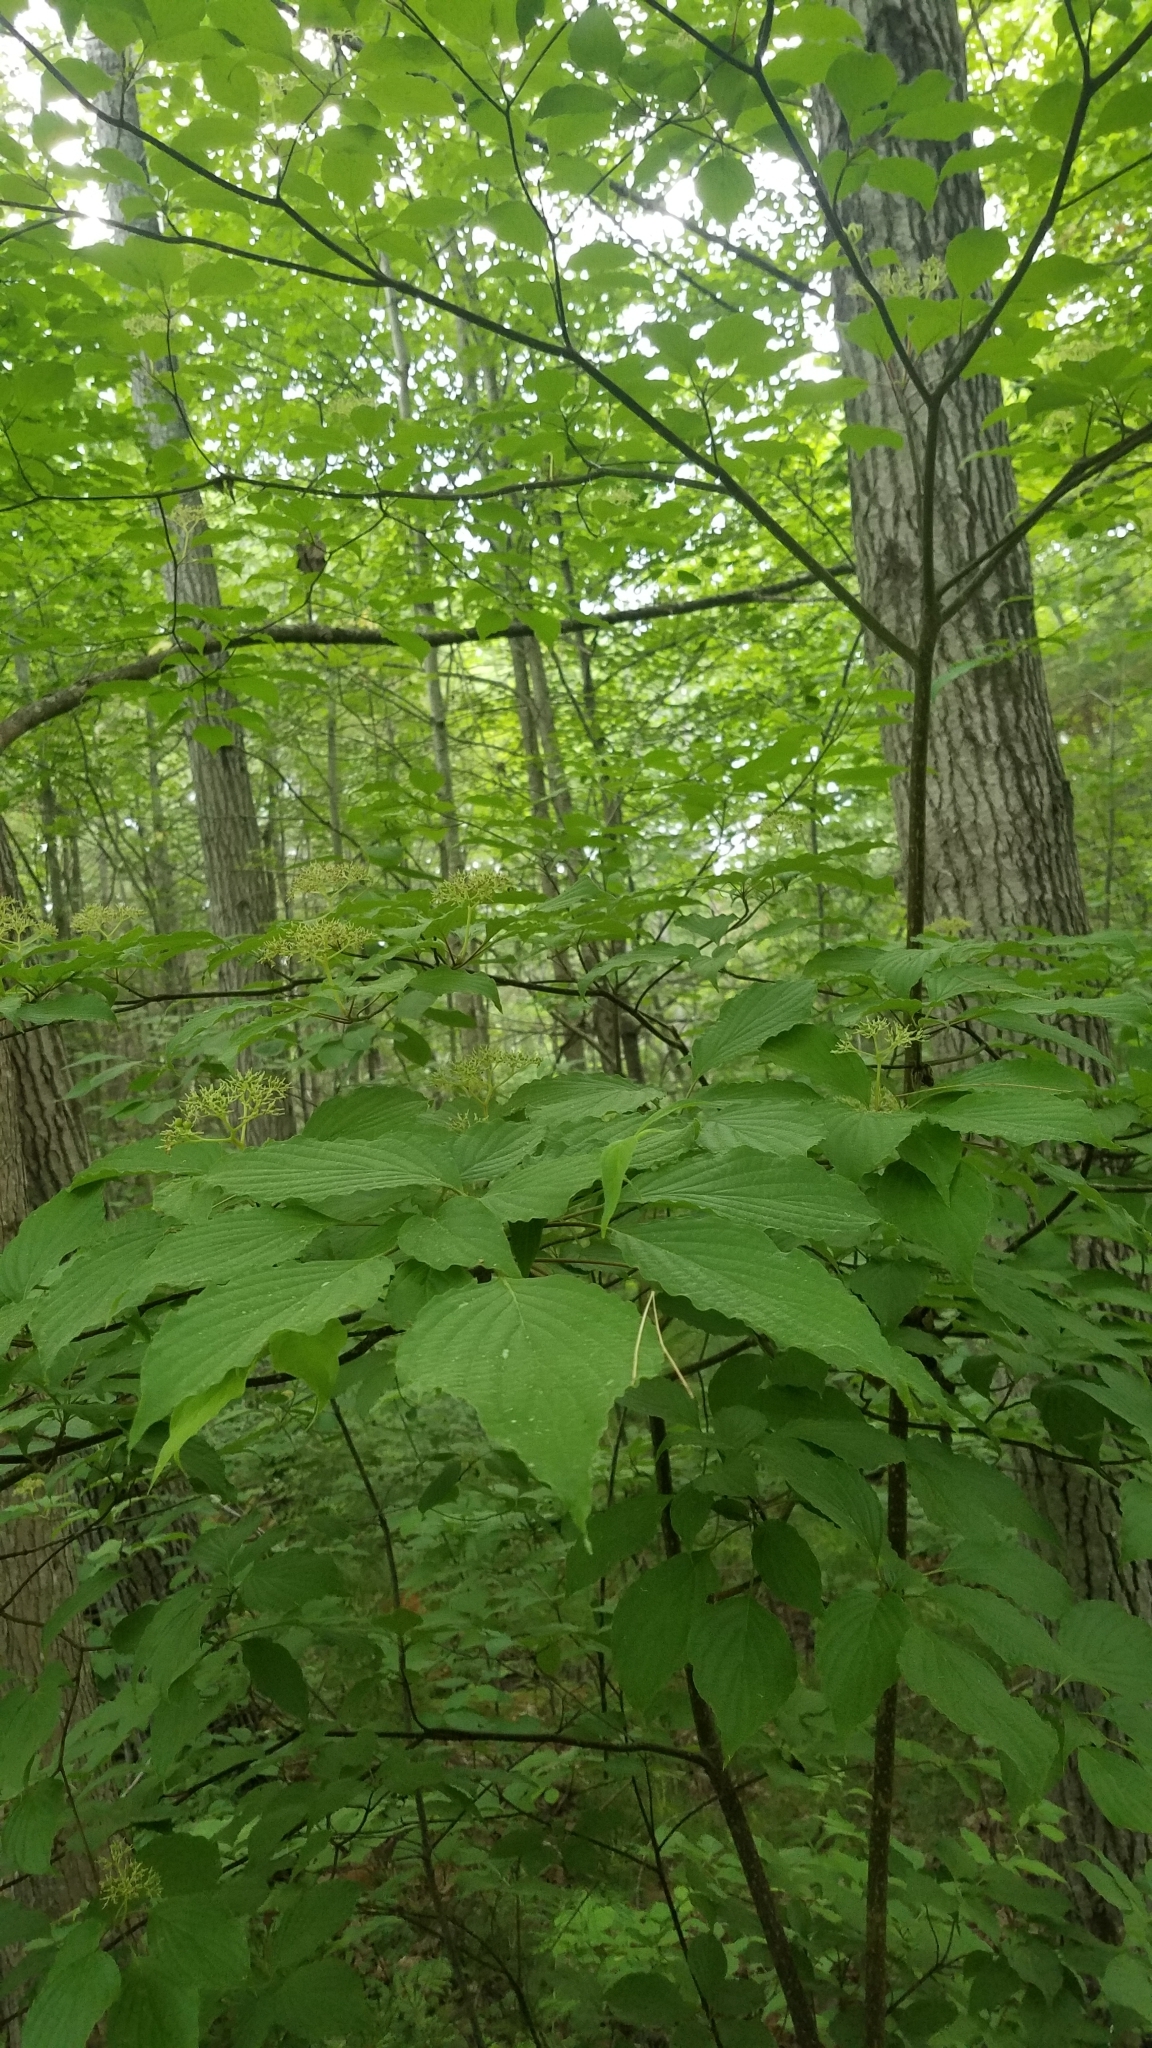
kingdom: Plantae
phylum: Tracheophyta
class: Magnoliopsida
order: Cornales
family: Cornaceae
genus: Cornus
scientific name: Cornus alternifolia
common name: Pagoda dogwood
